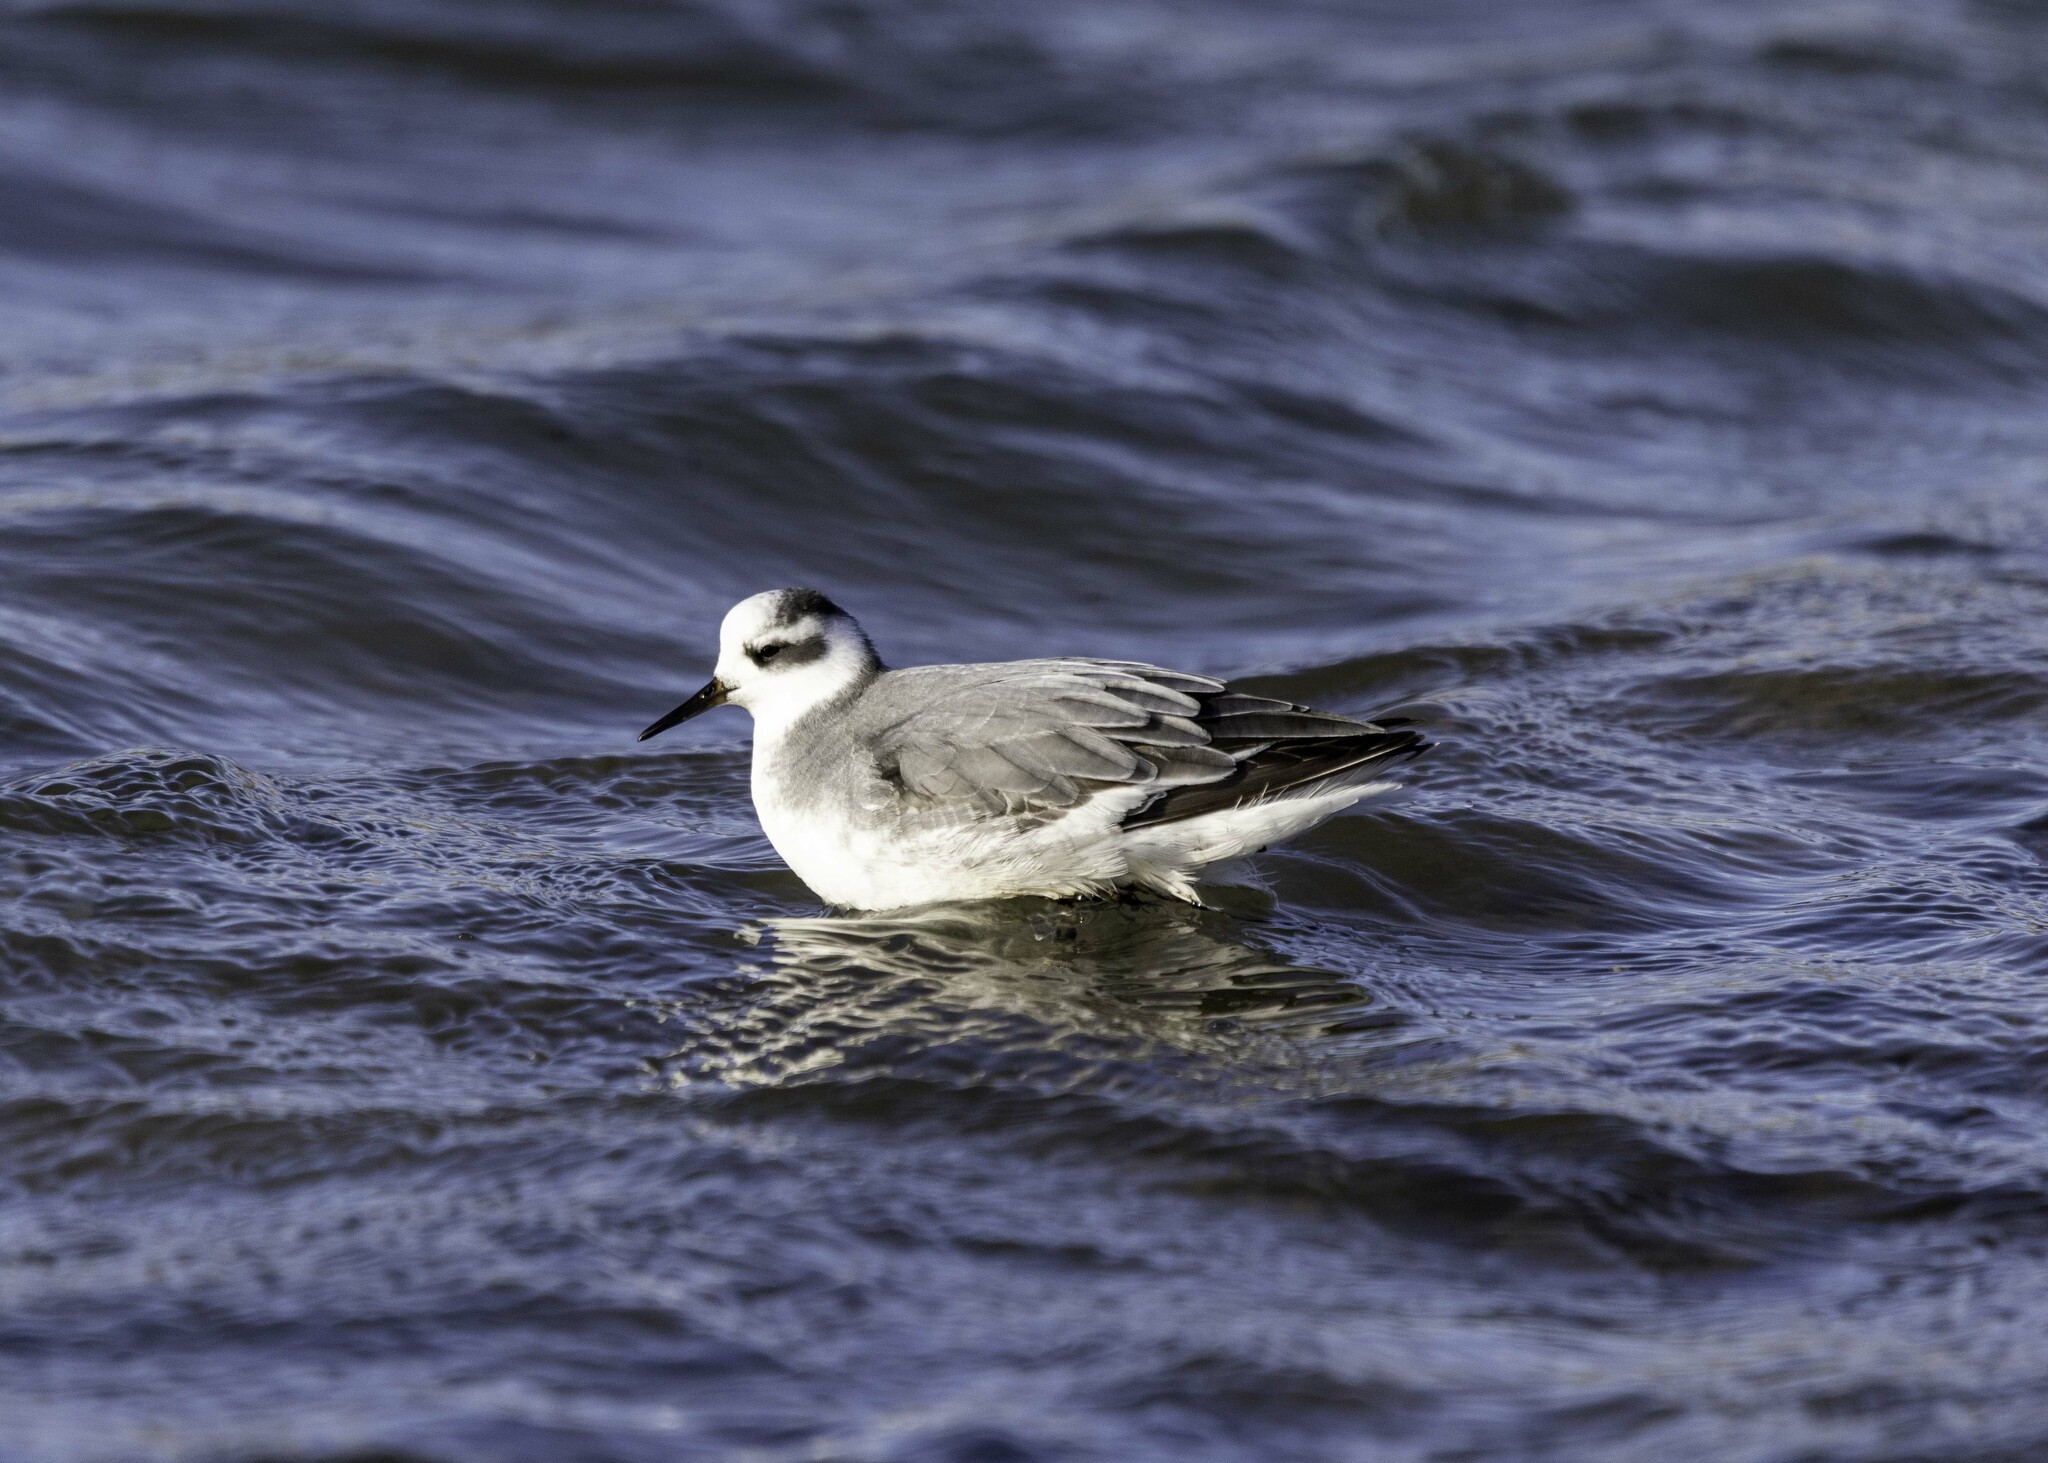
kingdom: Animalia
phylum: Chordata
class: Aves
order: Charadriiformes
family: Scolopacidae
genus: Phalaropus
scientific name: Phalaropus fulicarius
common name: Red phalarope
